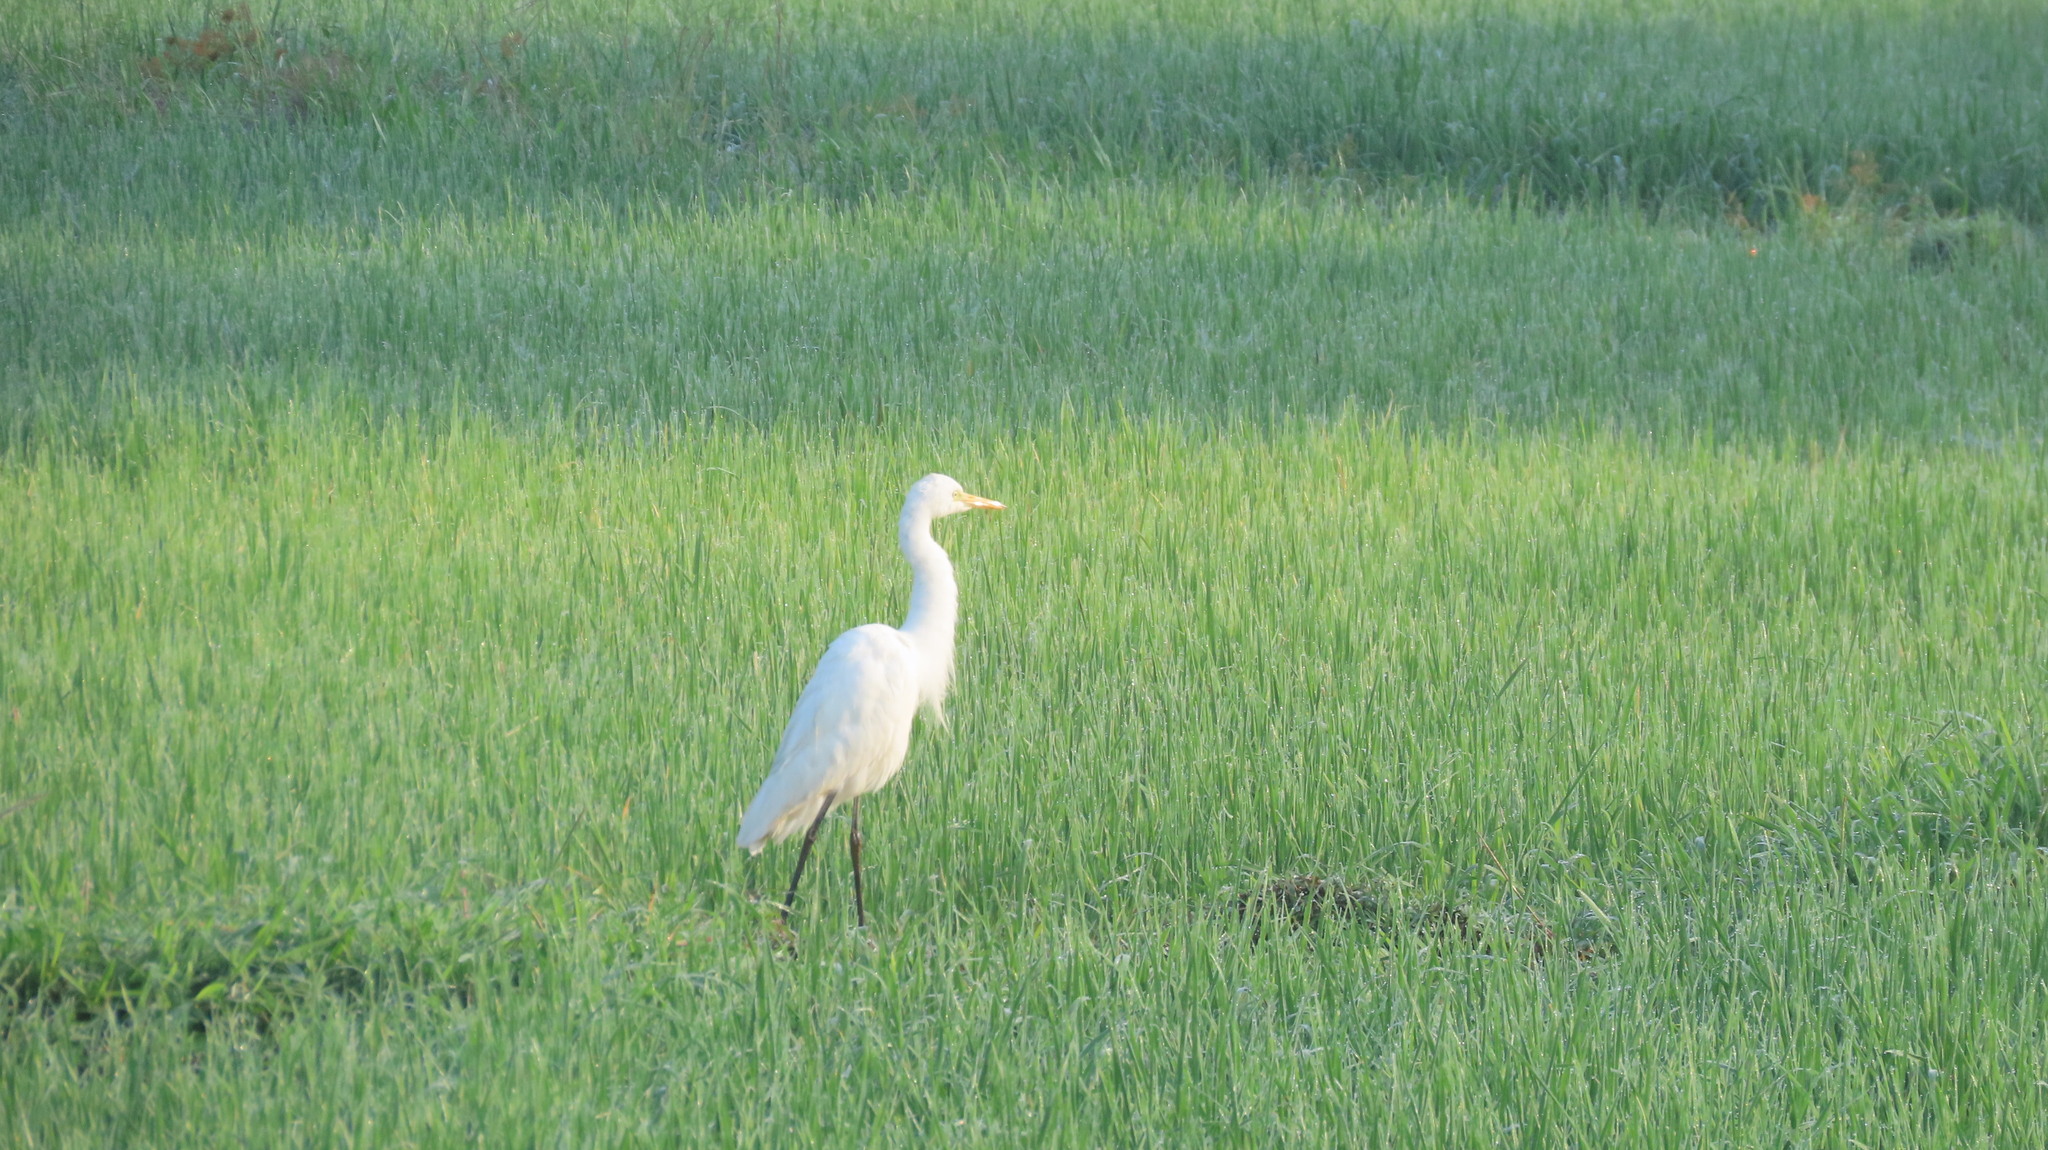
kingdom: Animalia
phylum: Chordata
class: Aves
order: Pelecaniformes
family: Ardeidae
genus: Egretta
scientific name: Egretta intermedia
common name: Intermediate egret
